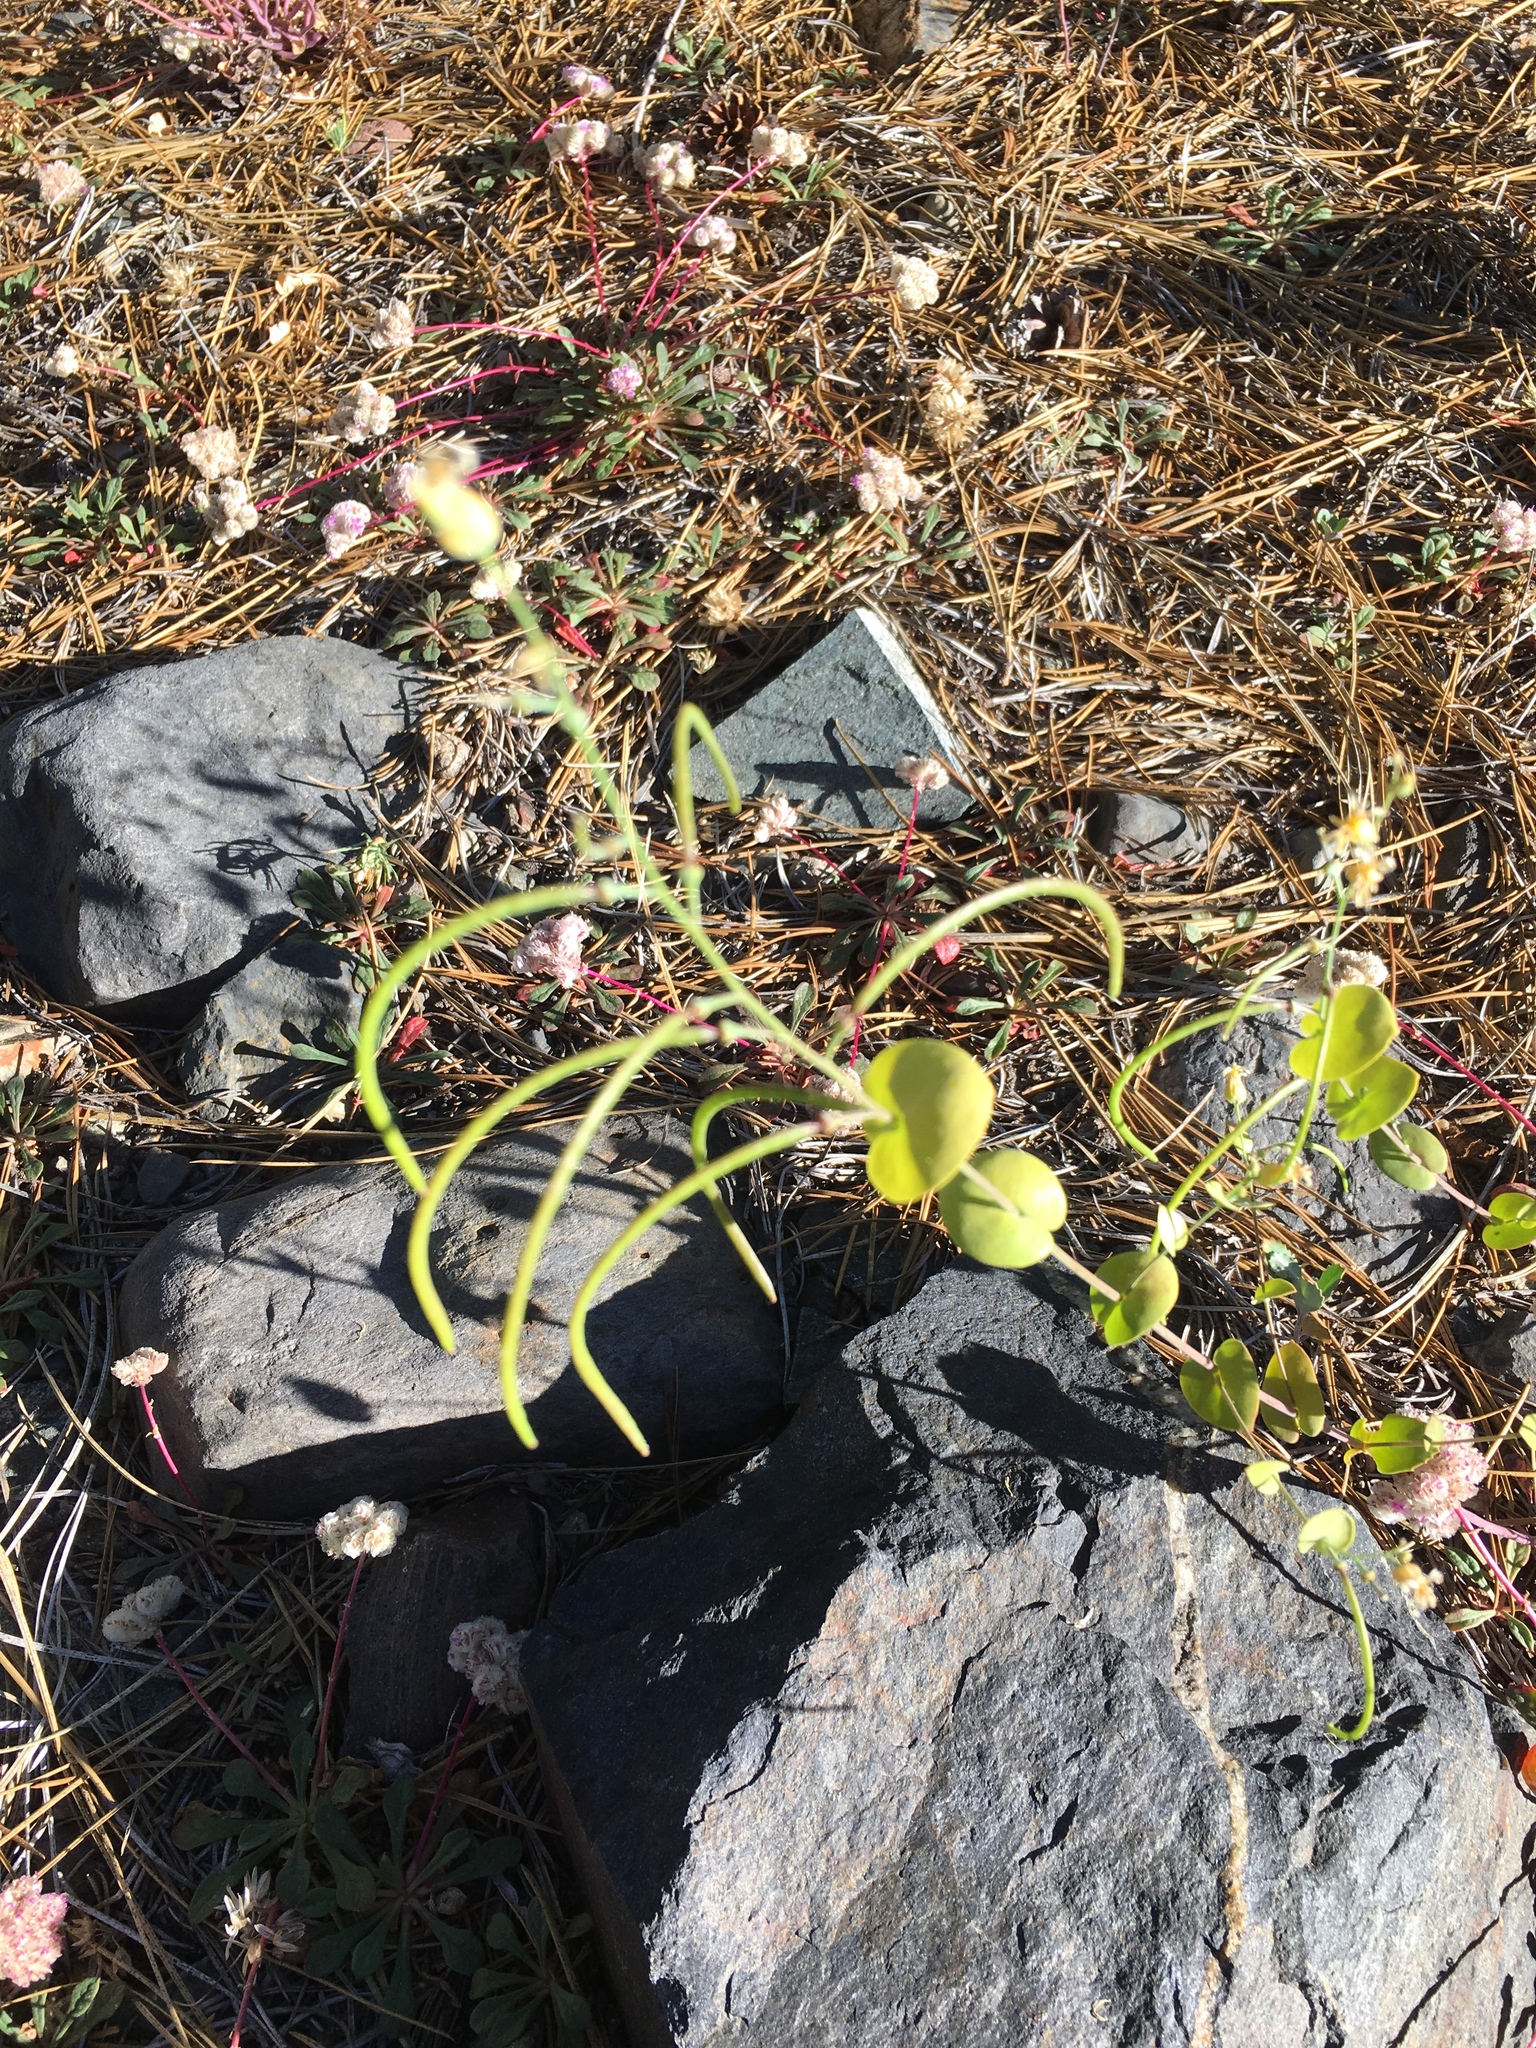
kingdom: Plantae
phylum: Tracheophyta
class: Magnoliopsida
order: Brassicales
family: Brassicaceae
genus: Streptanthus
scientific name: Streptanthus tortuosus
